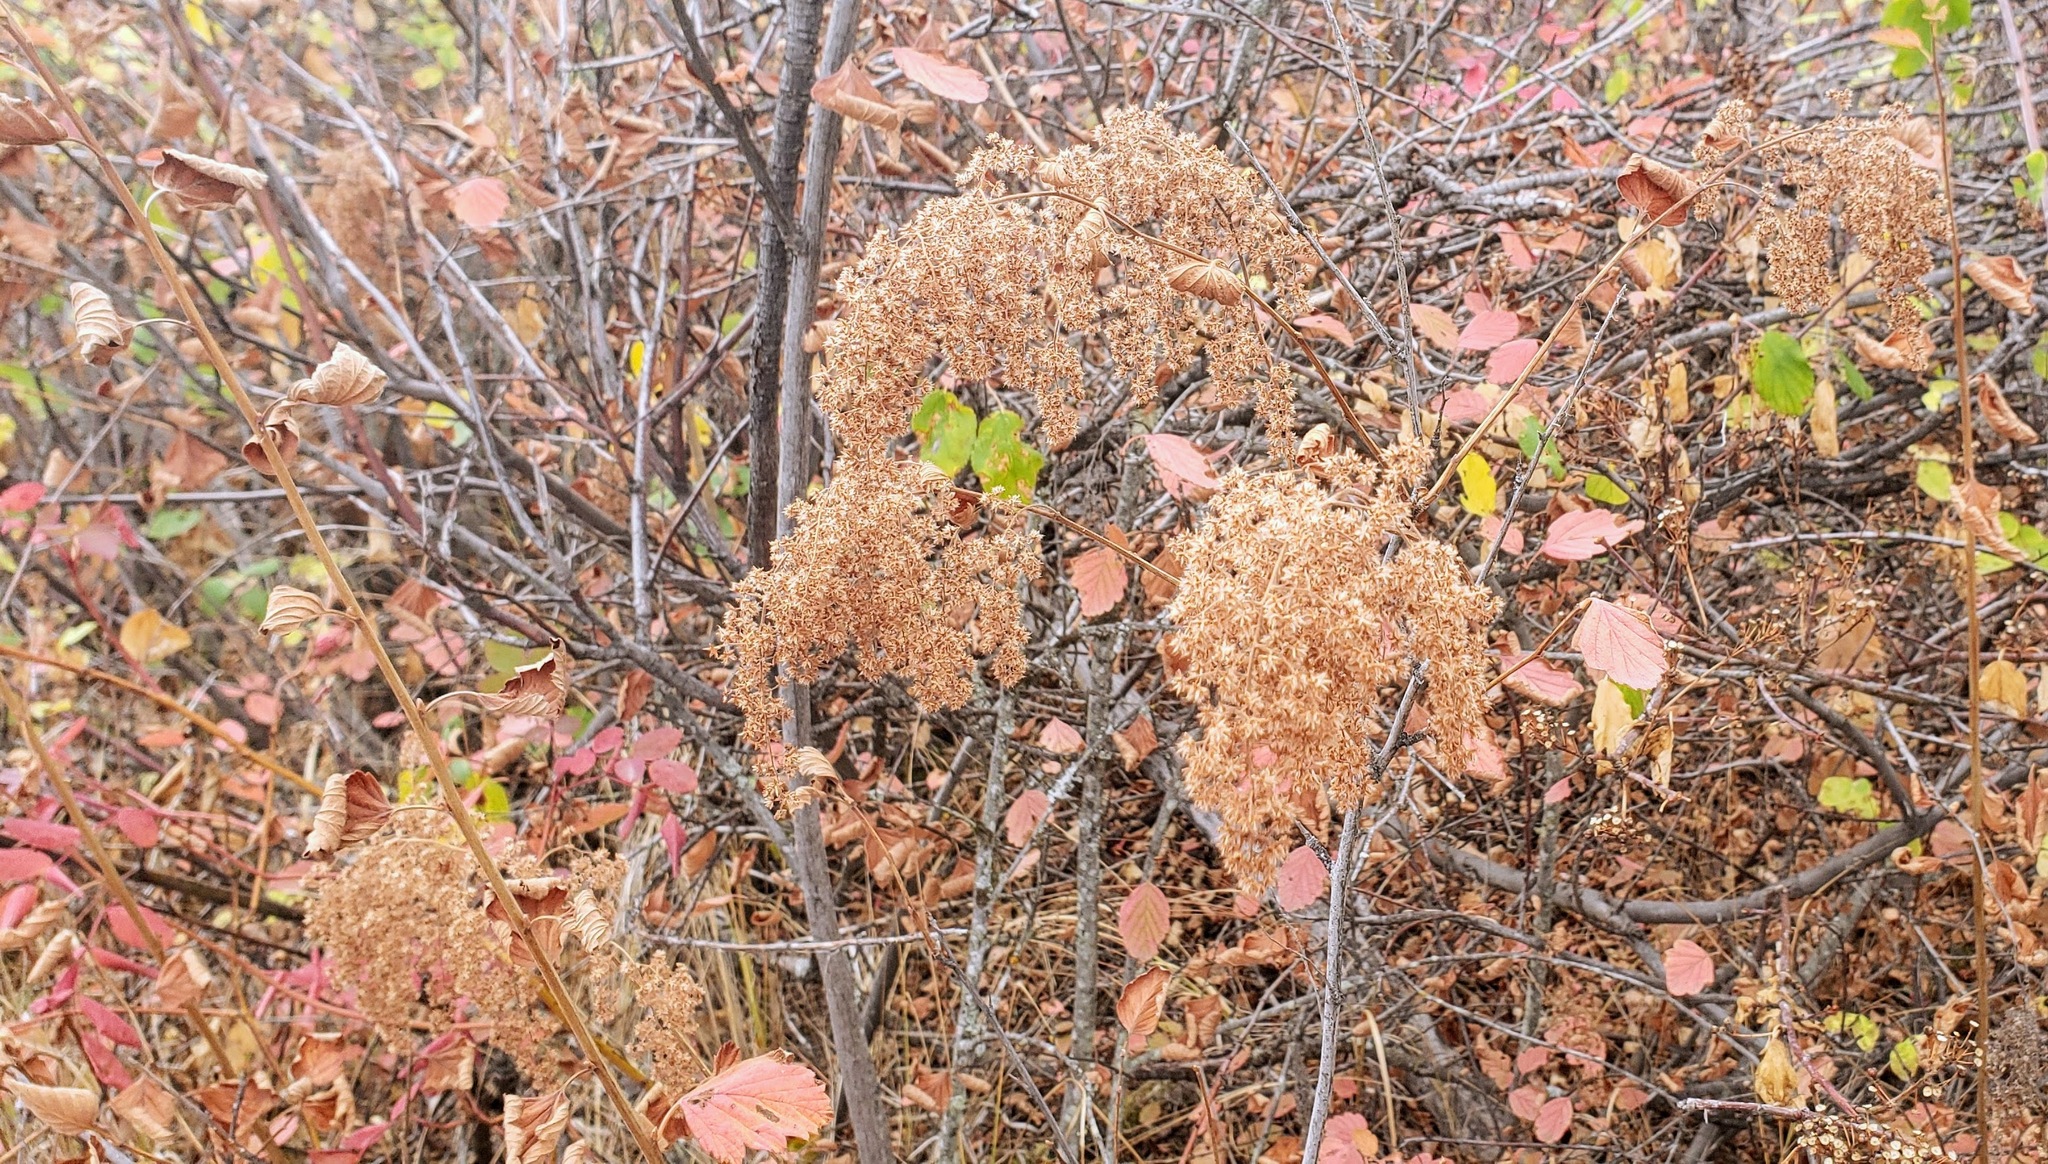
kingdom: Plantae
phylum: Tracheophyta
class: Magnoliopsida
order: Rosales
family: Rosaceae
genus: Holodiscus
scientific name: Holodiscus discolor
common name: Oceanspray
